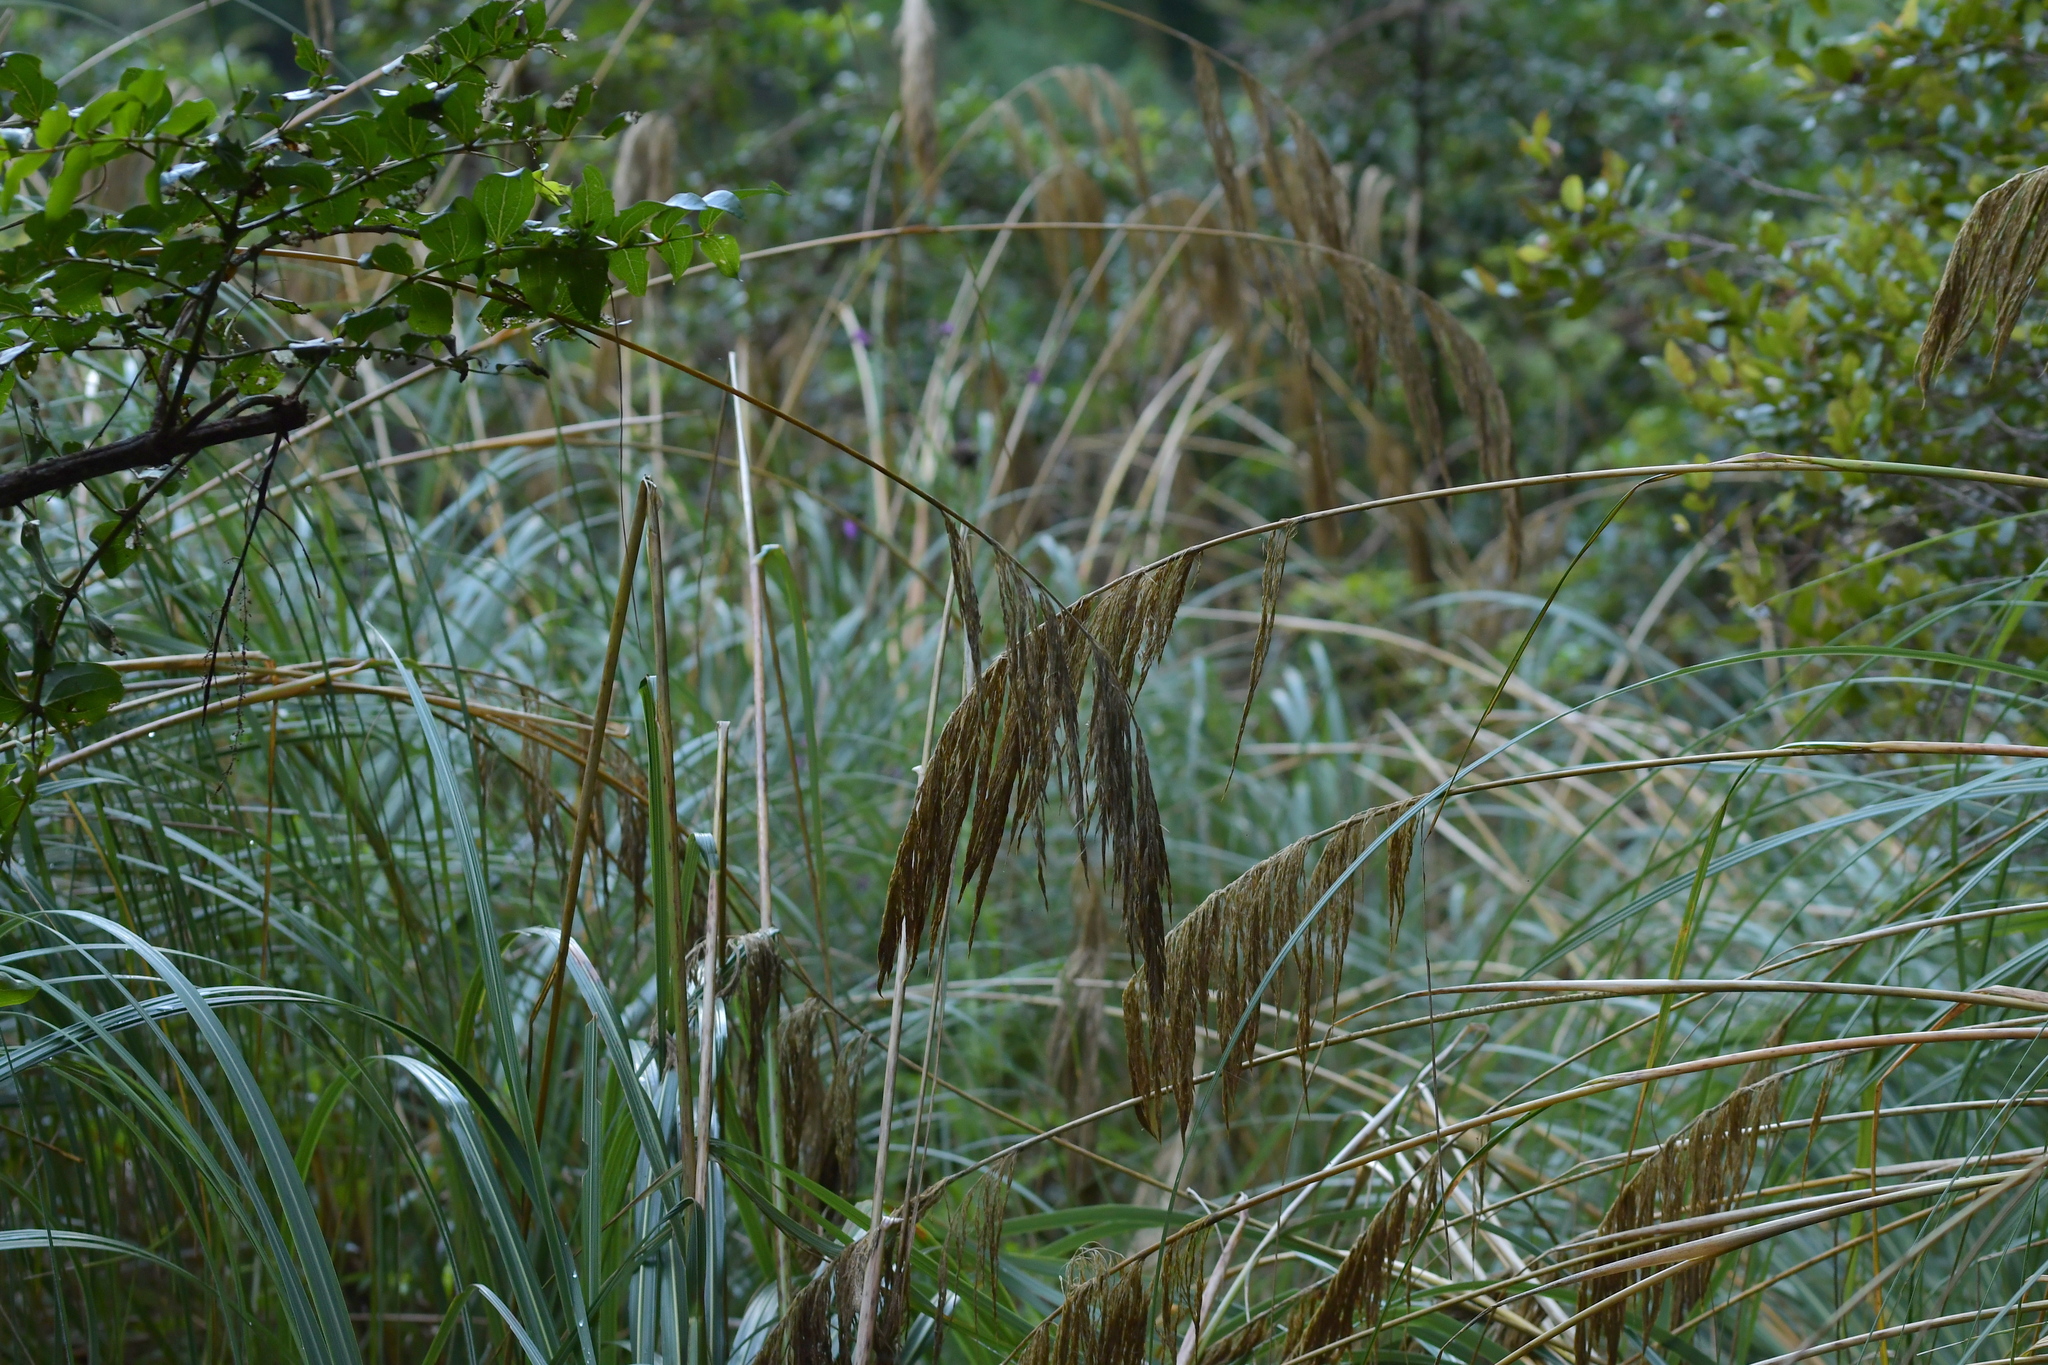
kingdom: Plantae
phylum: Tracheophyta
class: Liliopsida
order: Poales
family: Poaceae
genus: Austroderia
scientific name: Austroderia fulvida
